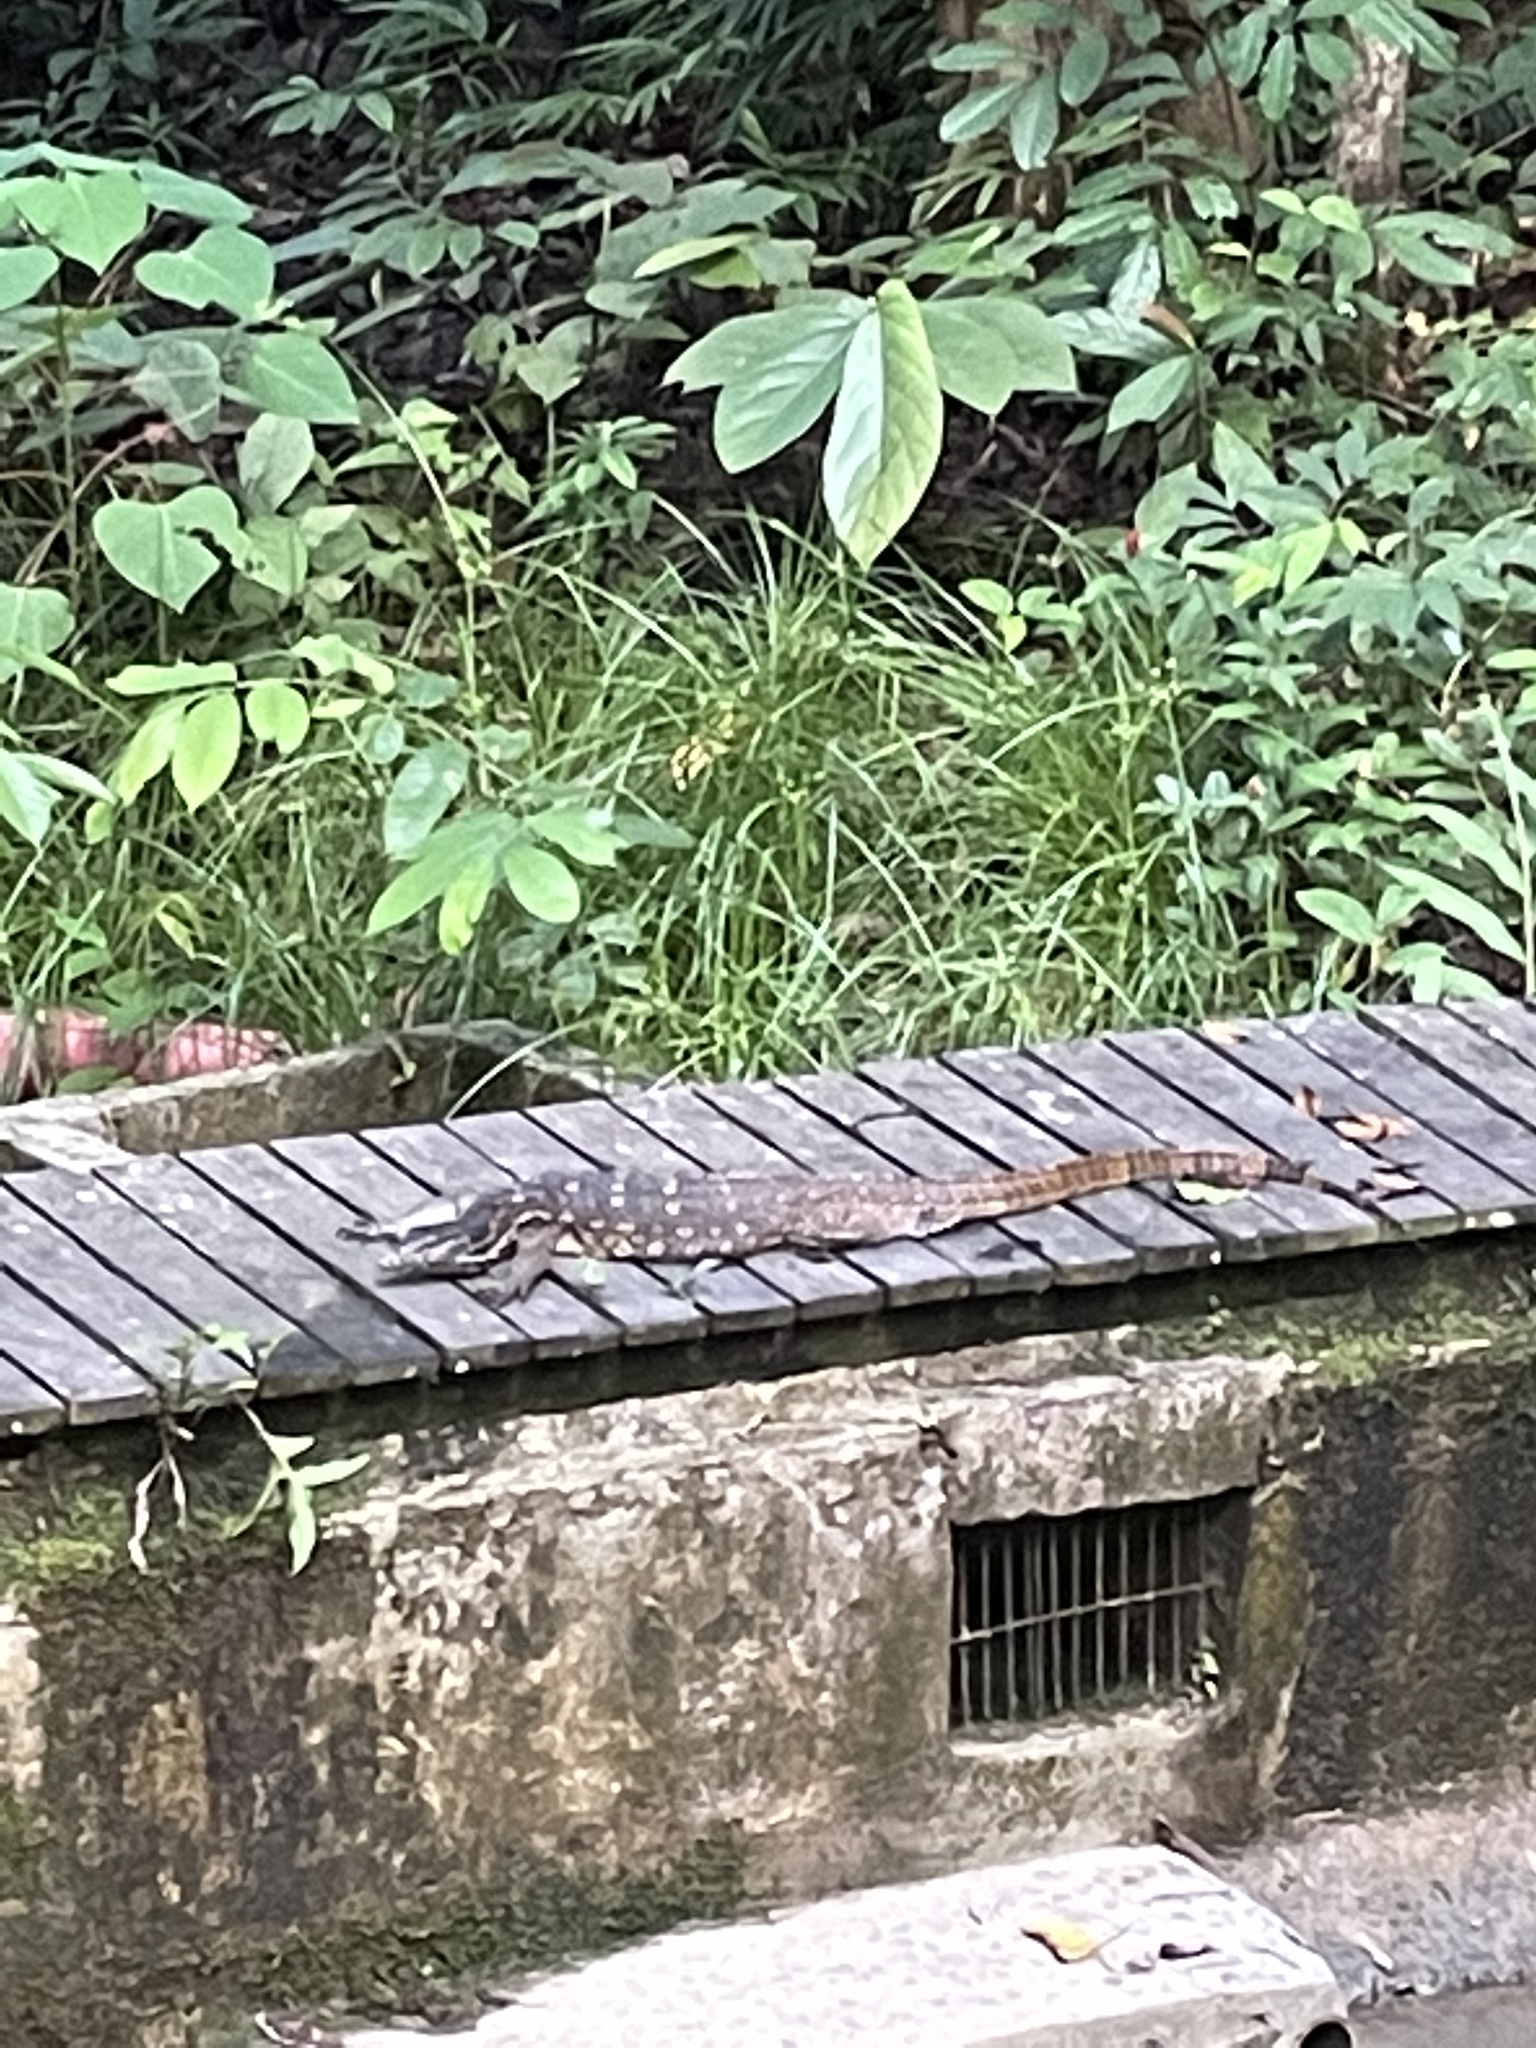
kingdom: Animalia
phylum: Chordata
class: Squamata
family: Varanidae
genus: Varanus
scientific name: Varanus salvator
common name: Common water monitor
